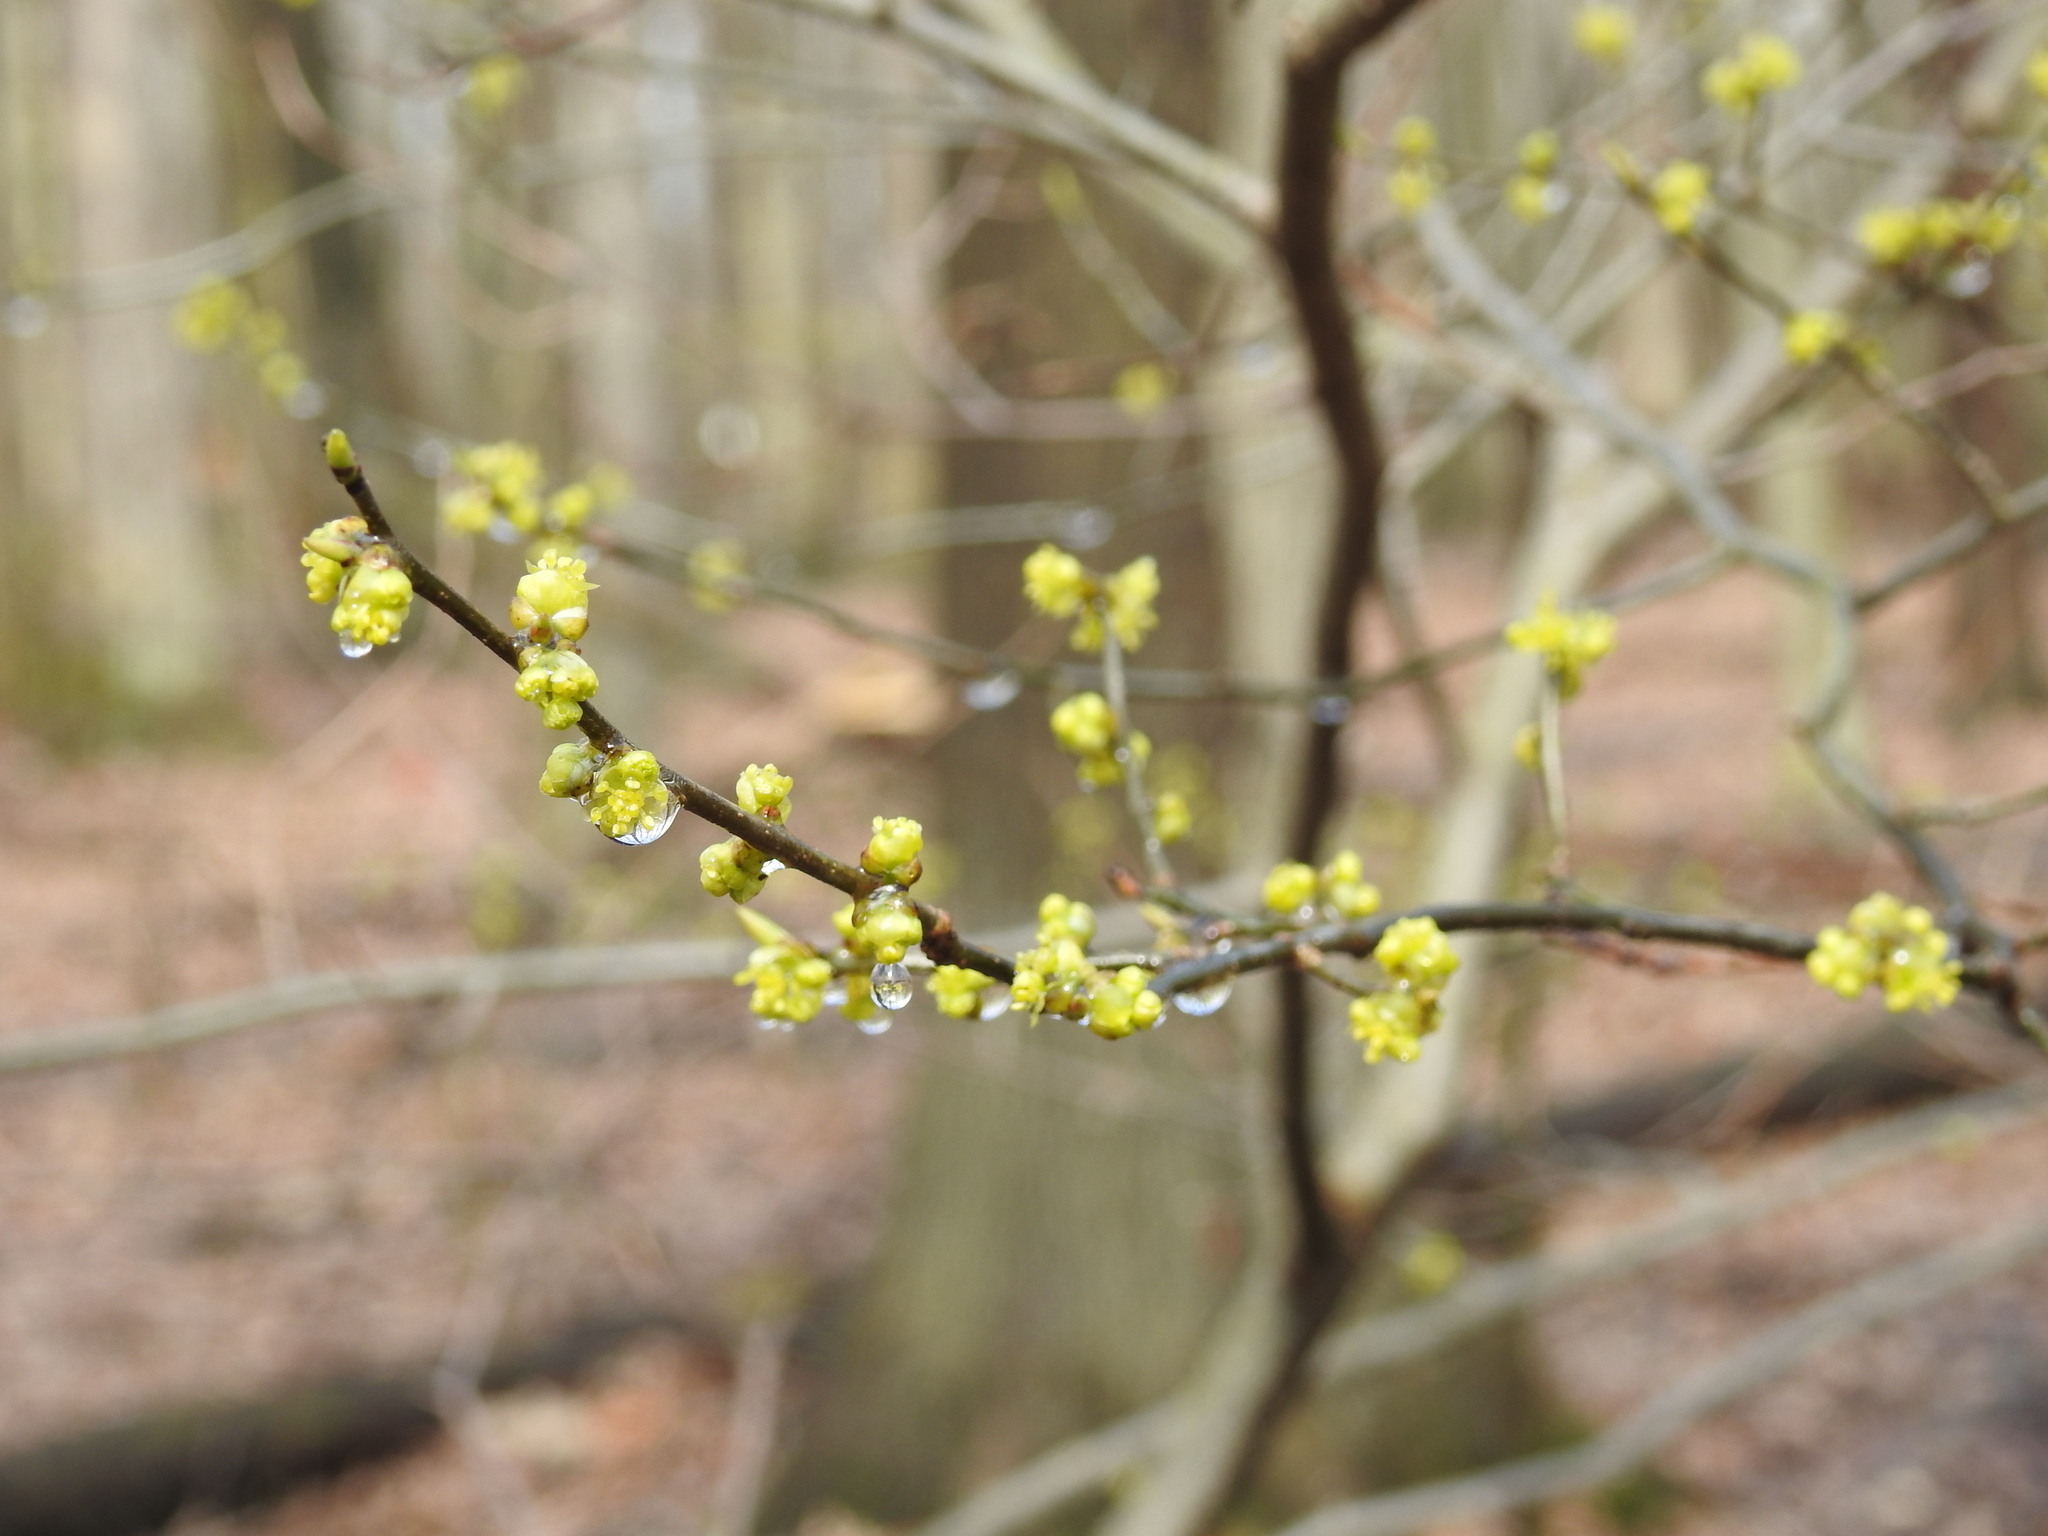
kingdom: Plantae
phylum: Tracheophyta
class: Magnoliopsida
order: Laurales
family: Lauraceae
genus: Lindera
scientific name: Lindera benzoin
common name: Spicebush
